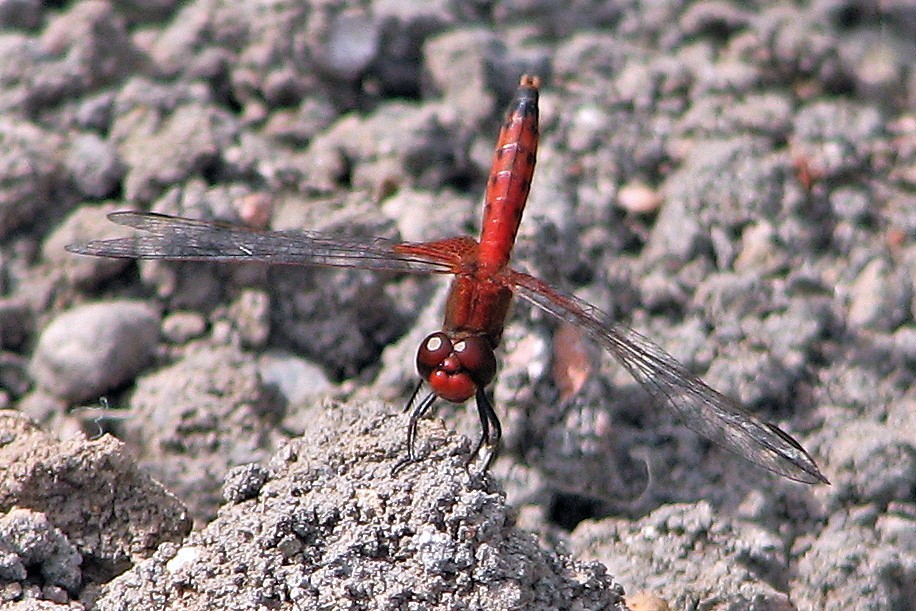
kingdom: Animalia
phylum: Arthropoda
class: Insecta
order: Odonata
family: Libellulidae
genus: Erythrodiplax
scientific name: Erythrodiplax corallina
